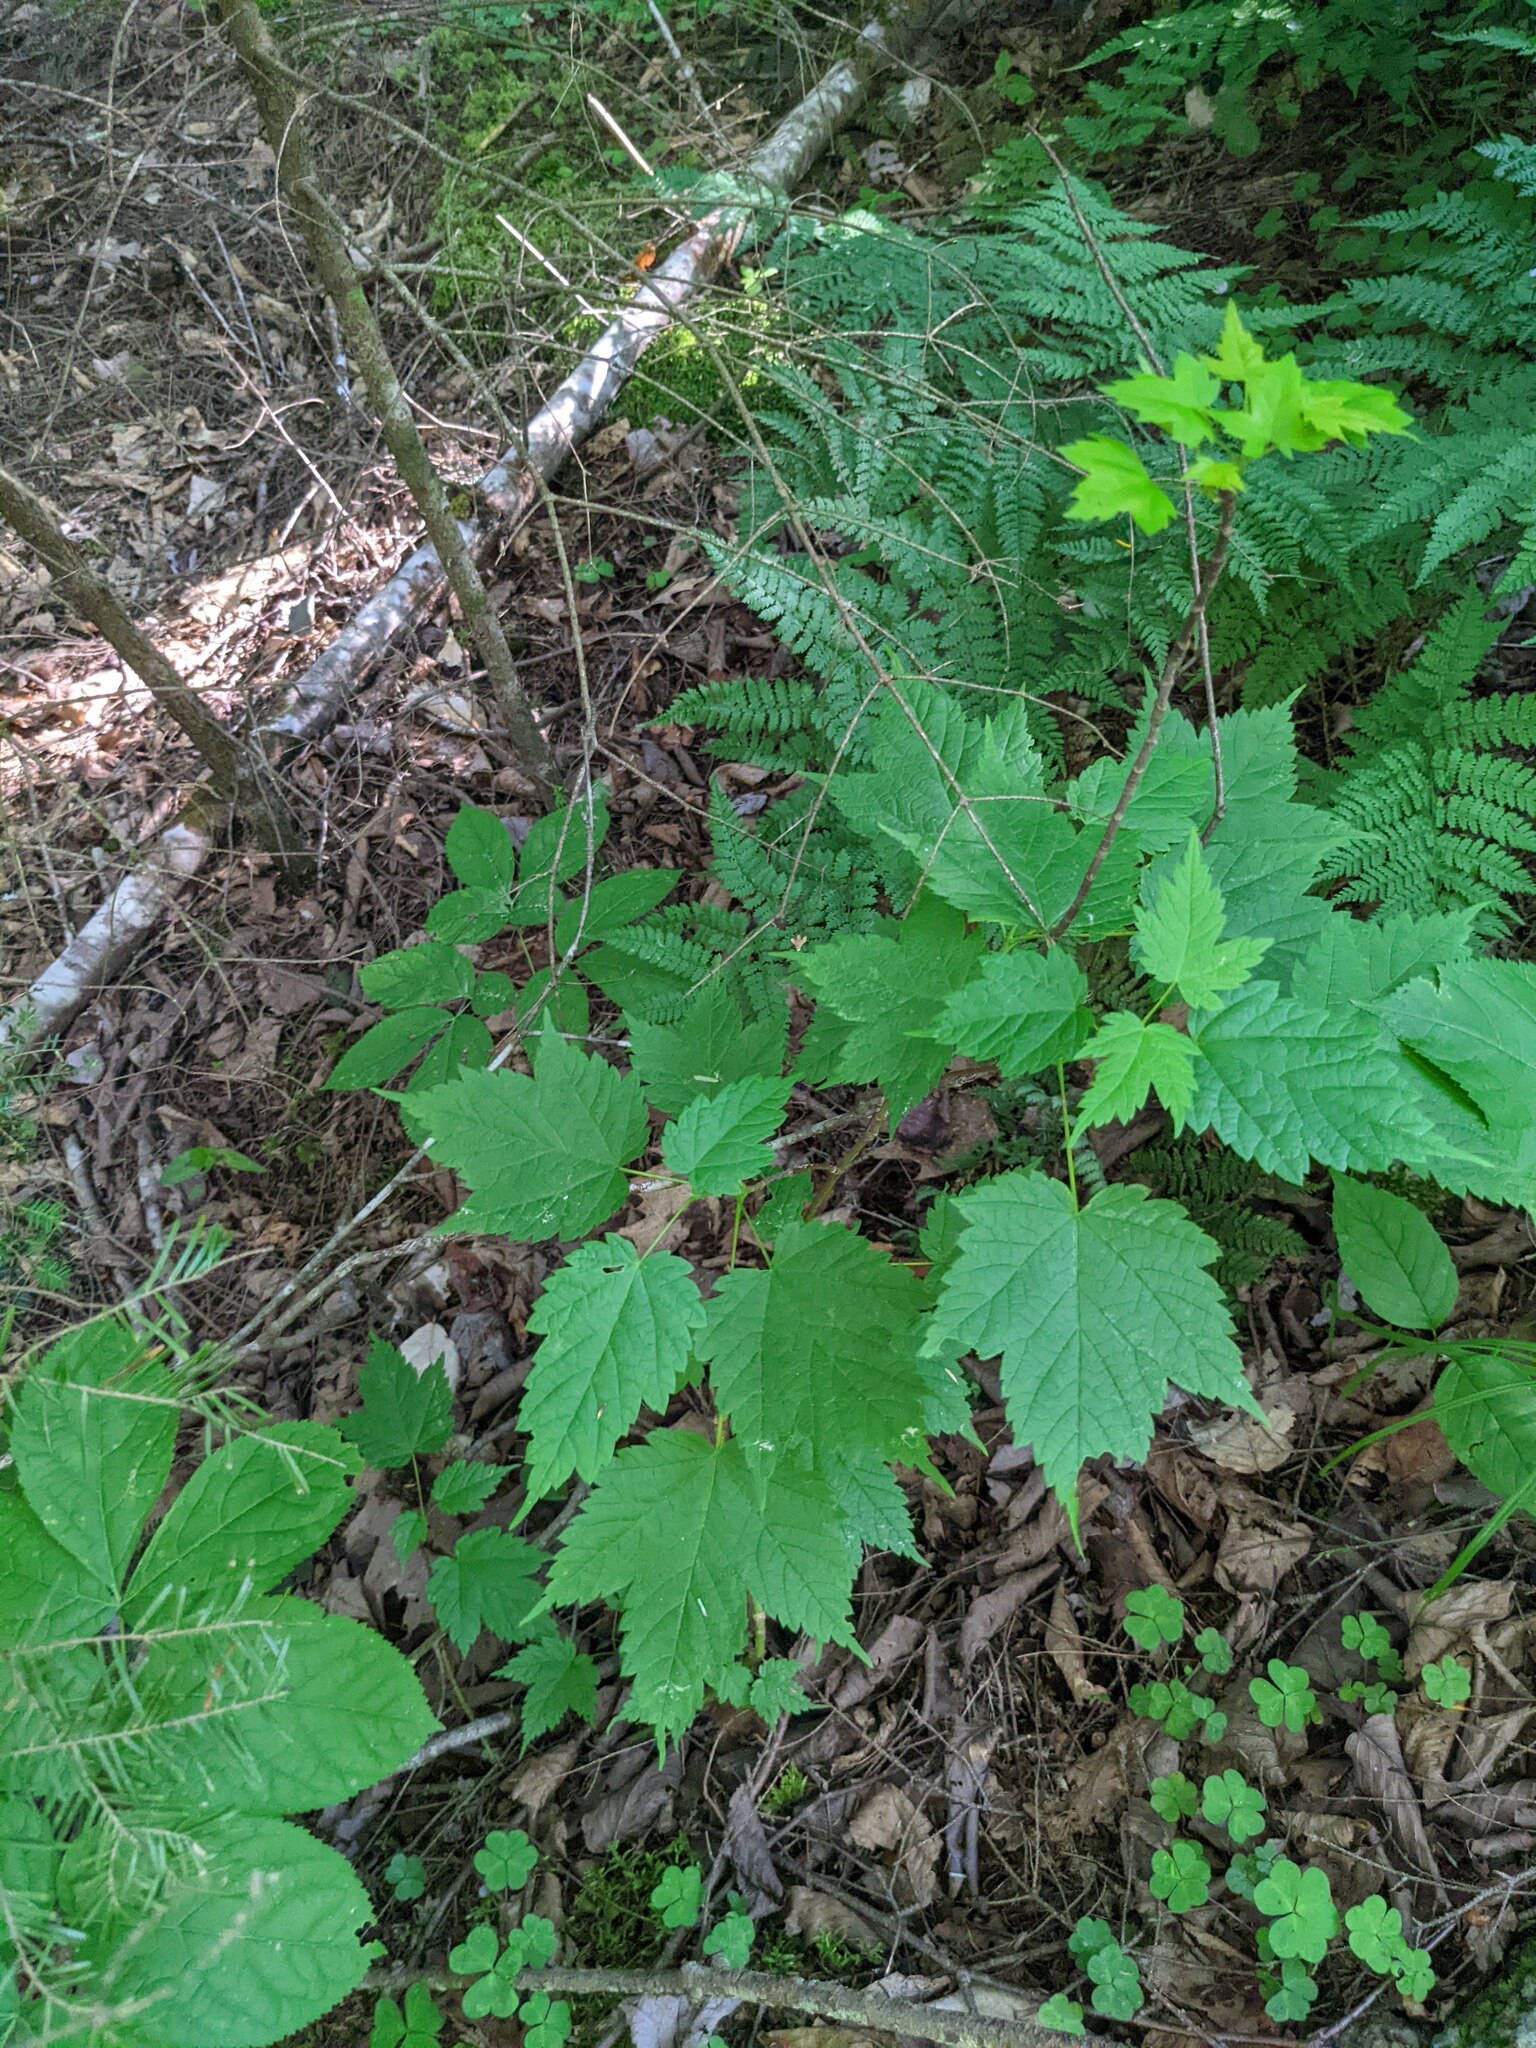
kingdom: Plantae
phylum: Tracheophyta
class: Magnoliopsida
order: Sapindales
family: Sapindaceae
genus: Acer
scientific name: Acer spicatum
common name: Mountain maple
